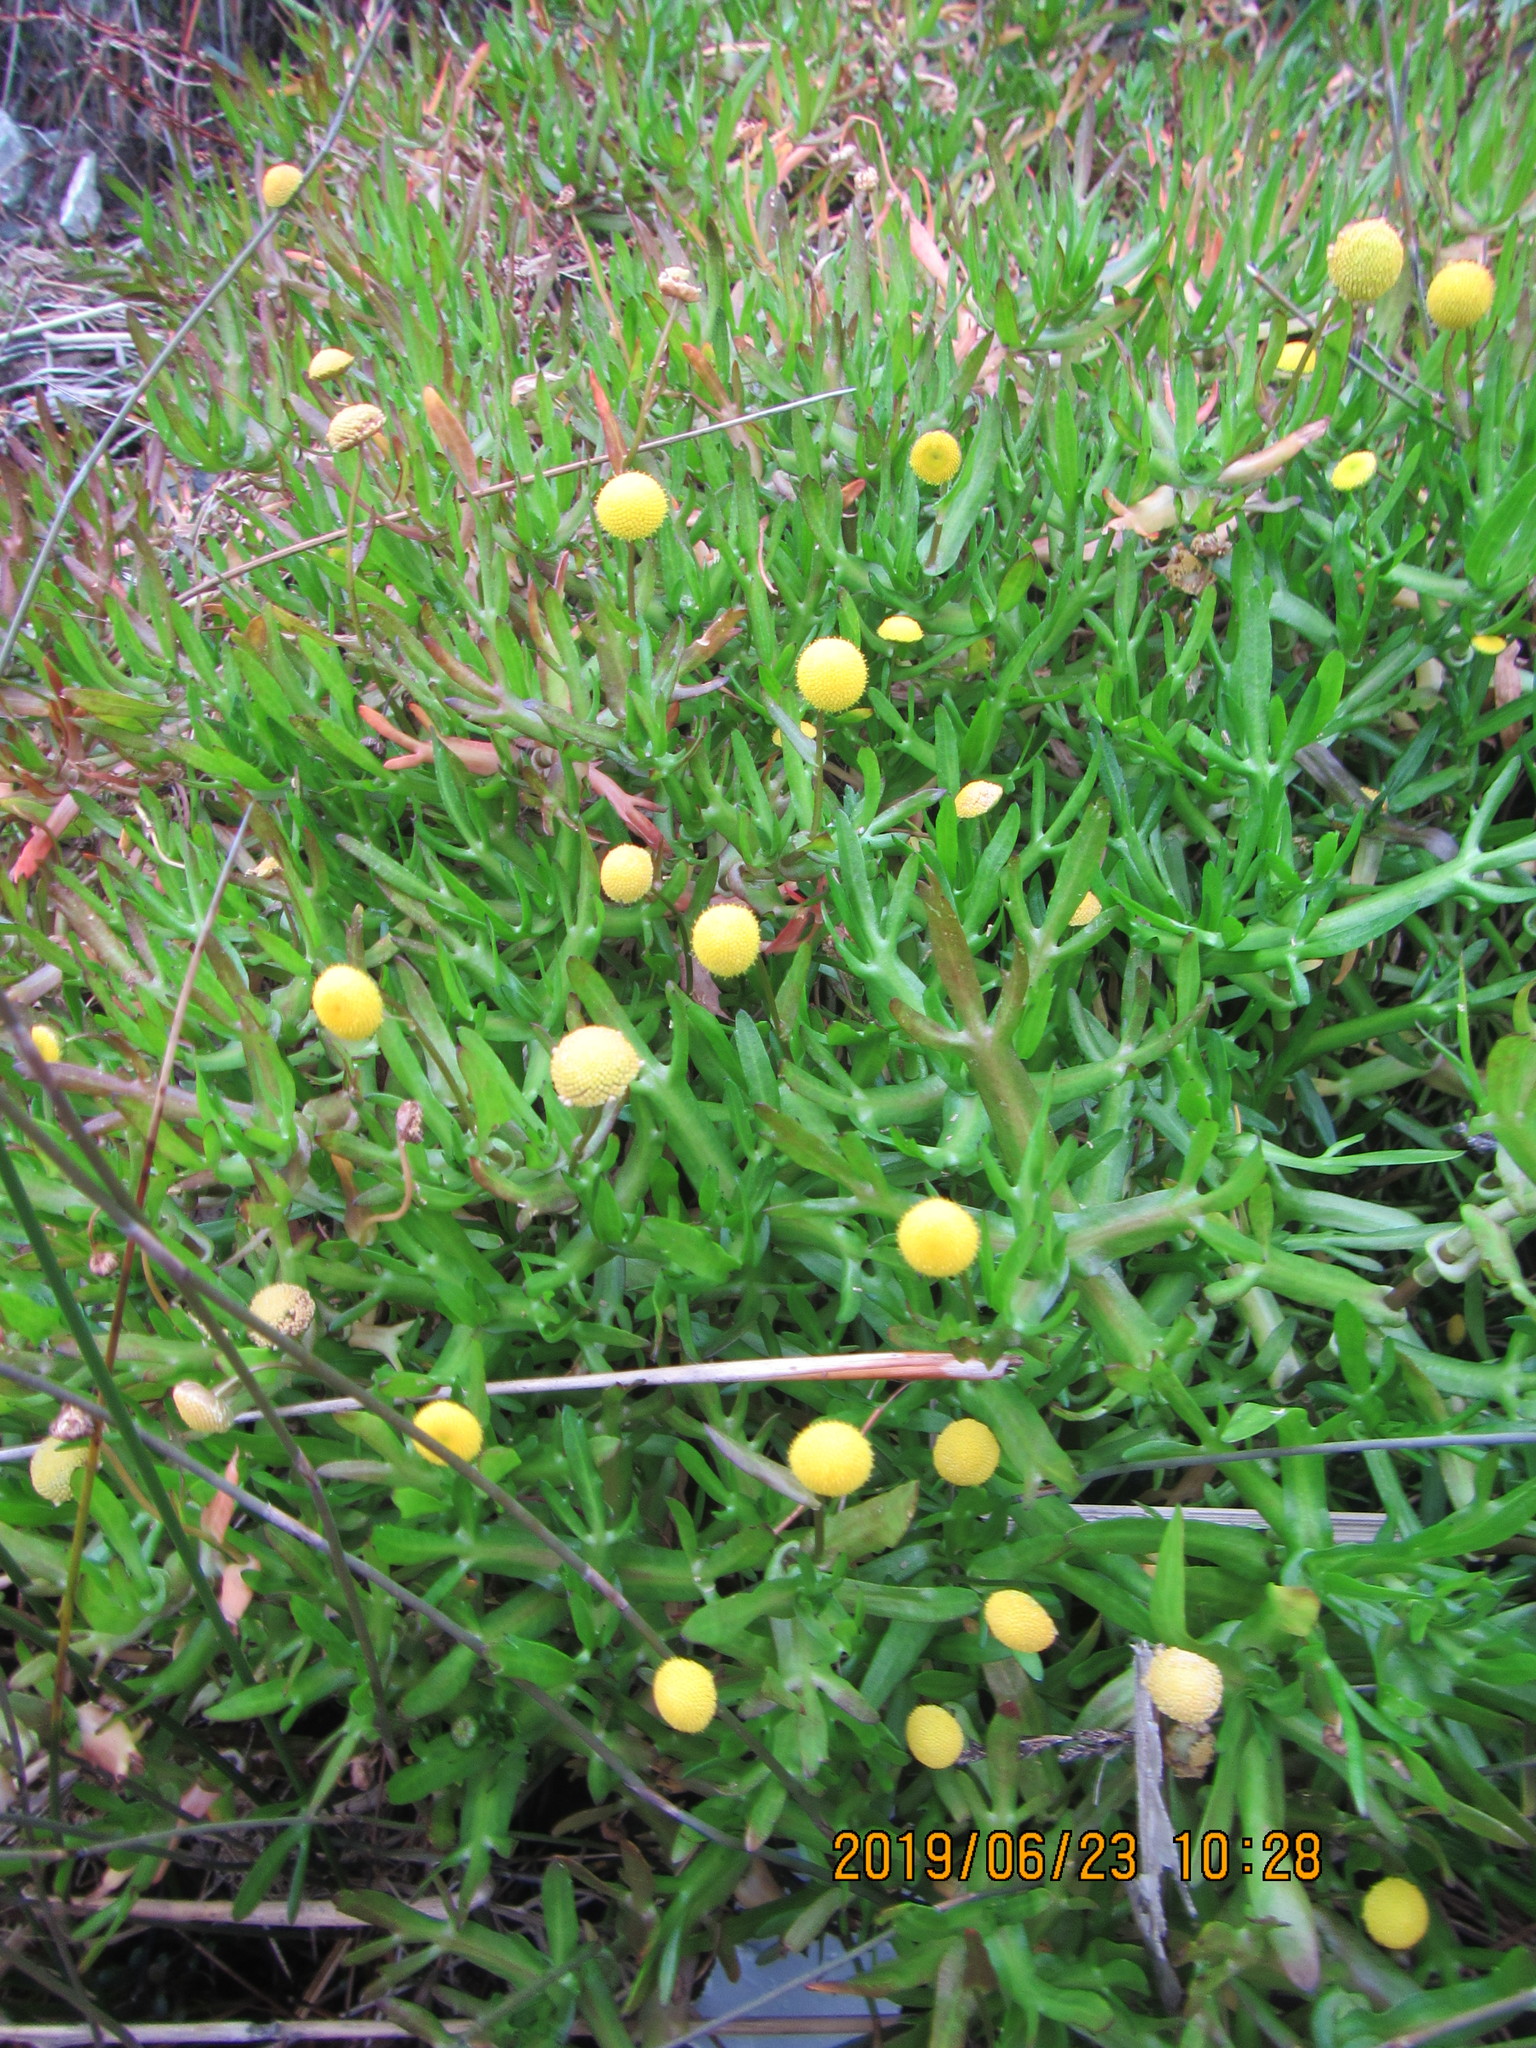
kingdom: Plantae
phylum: Tracheophyta
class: Magnoliopsida
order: Asterales
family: Asteraceae
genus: Cotula
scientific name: Cotula coronopifolia
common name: Buttonweed
